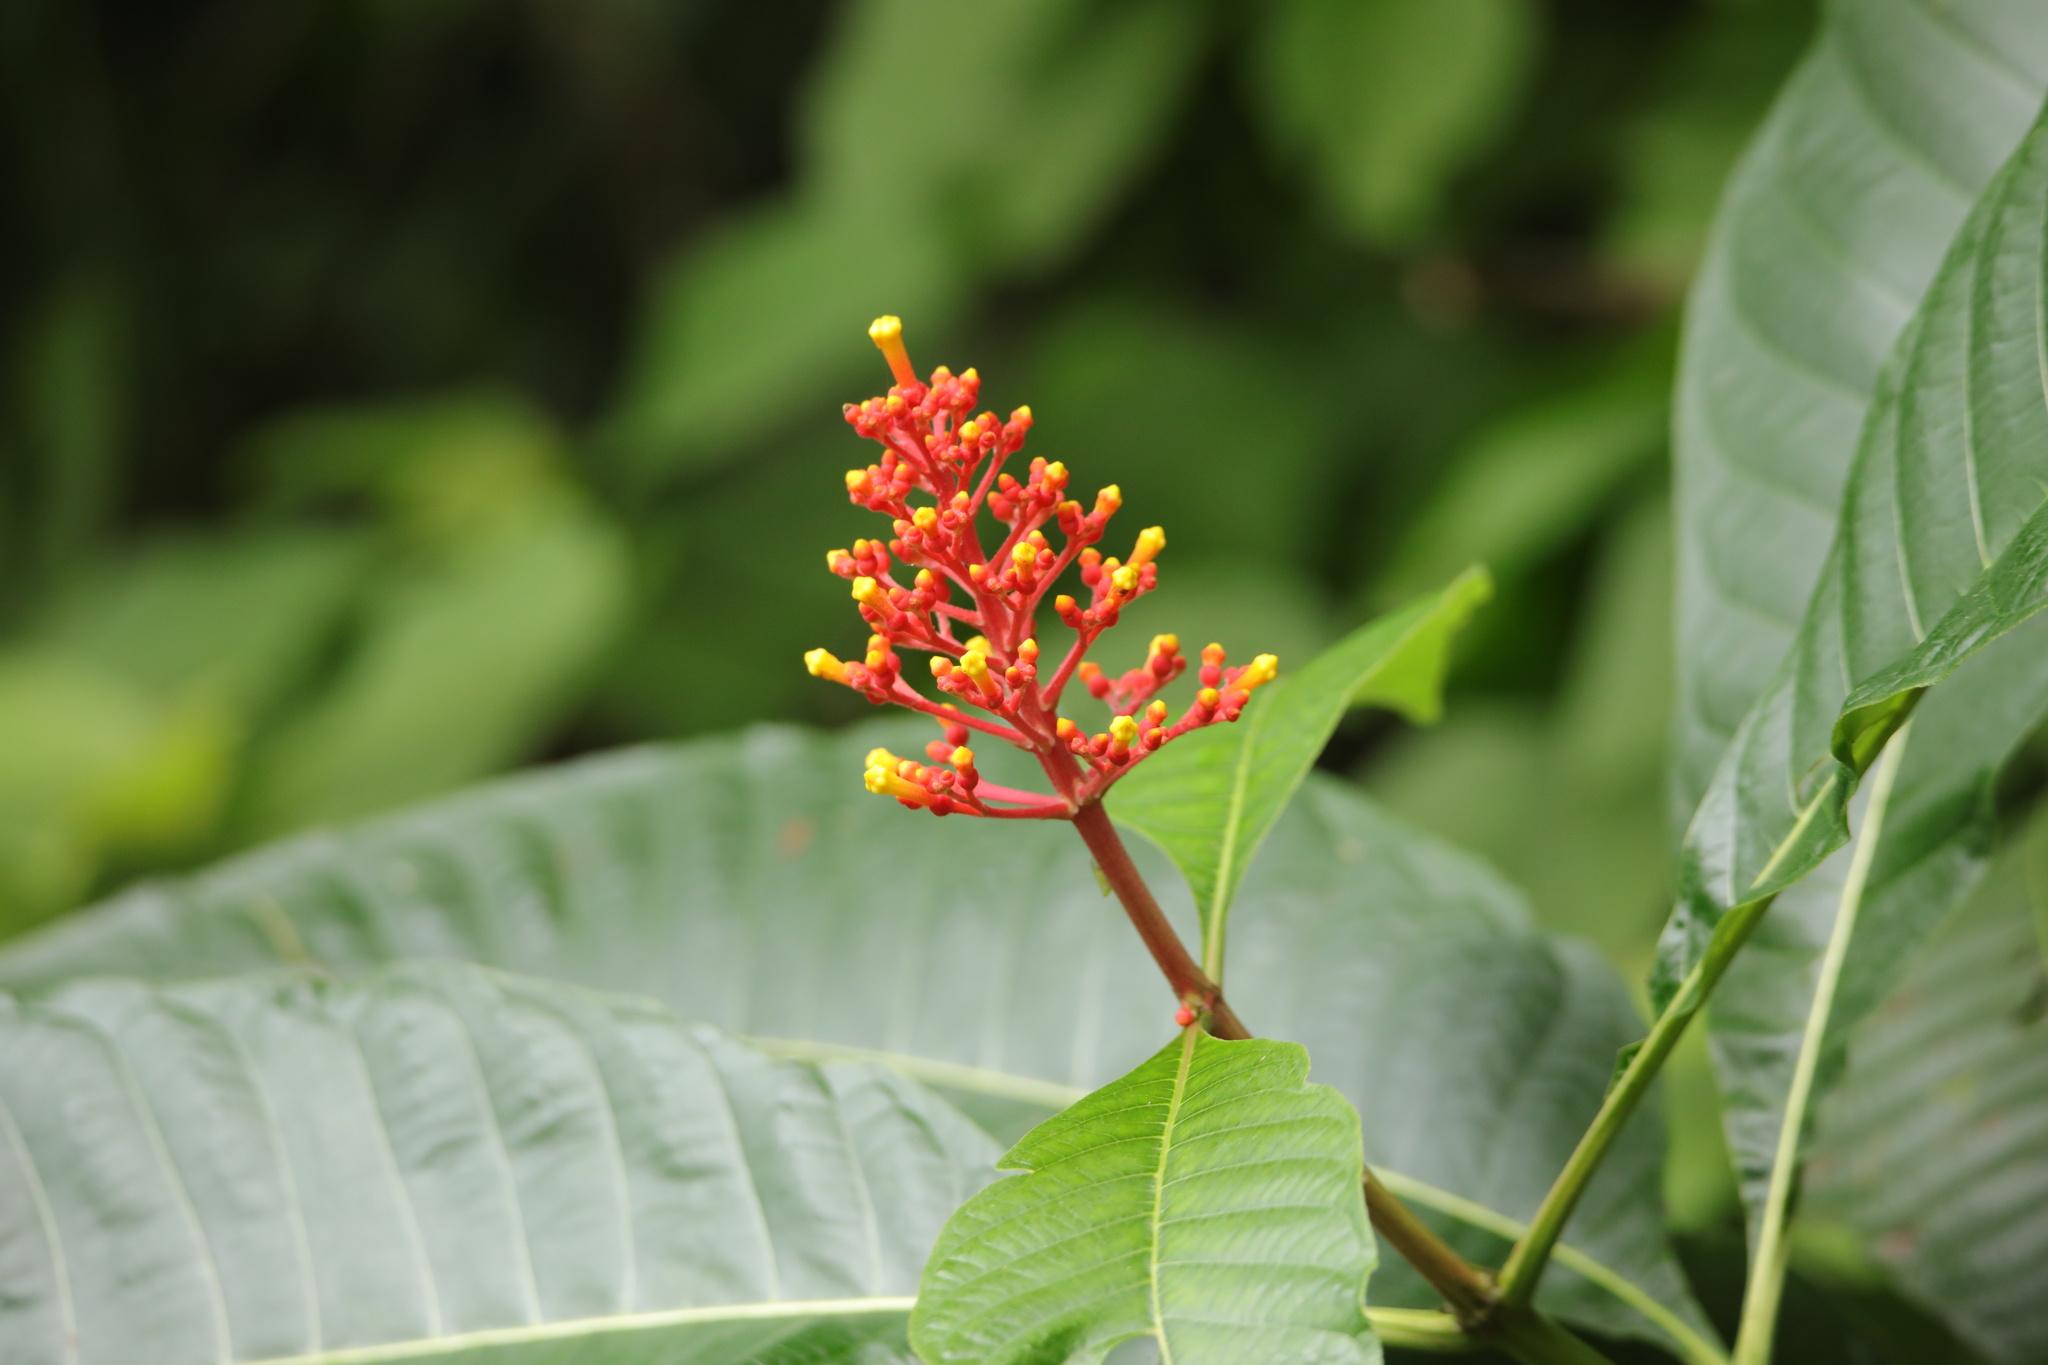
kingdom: Plantae
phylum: Tracheophyta
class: Magnoliopsida
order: Gentianales
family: Rubiaceae
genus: Isertia
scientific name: Isertia haenkeana
